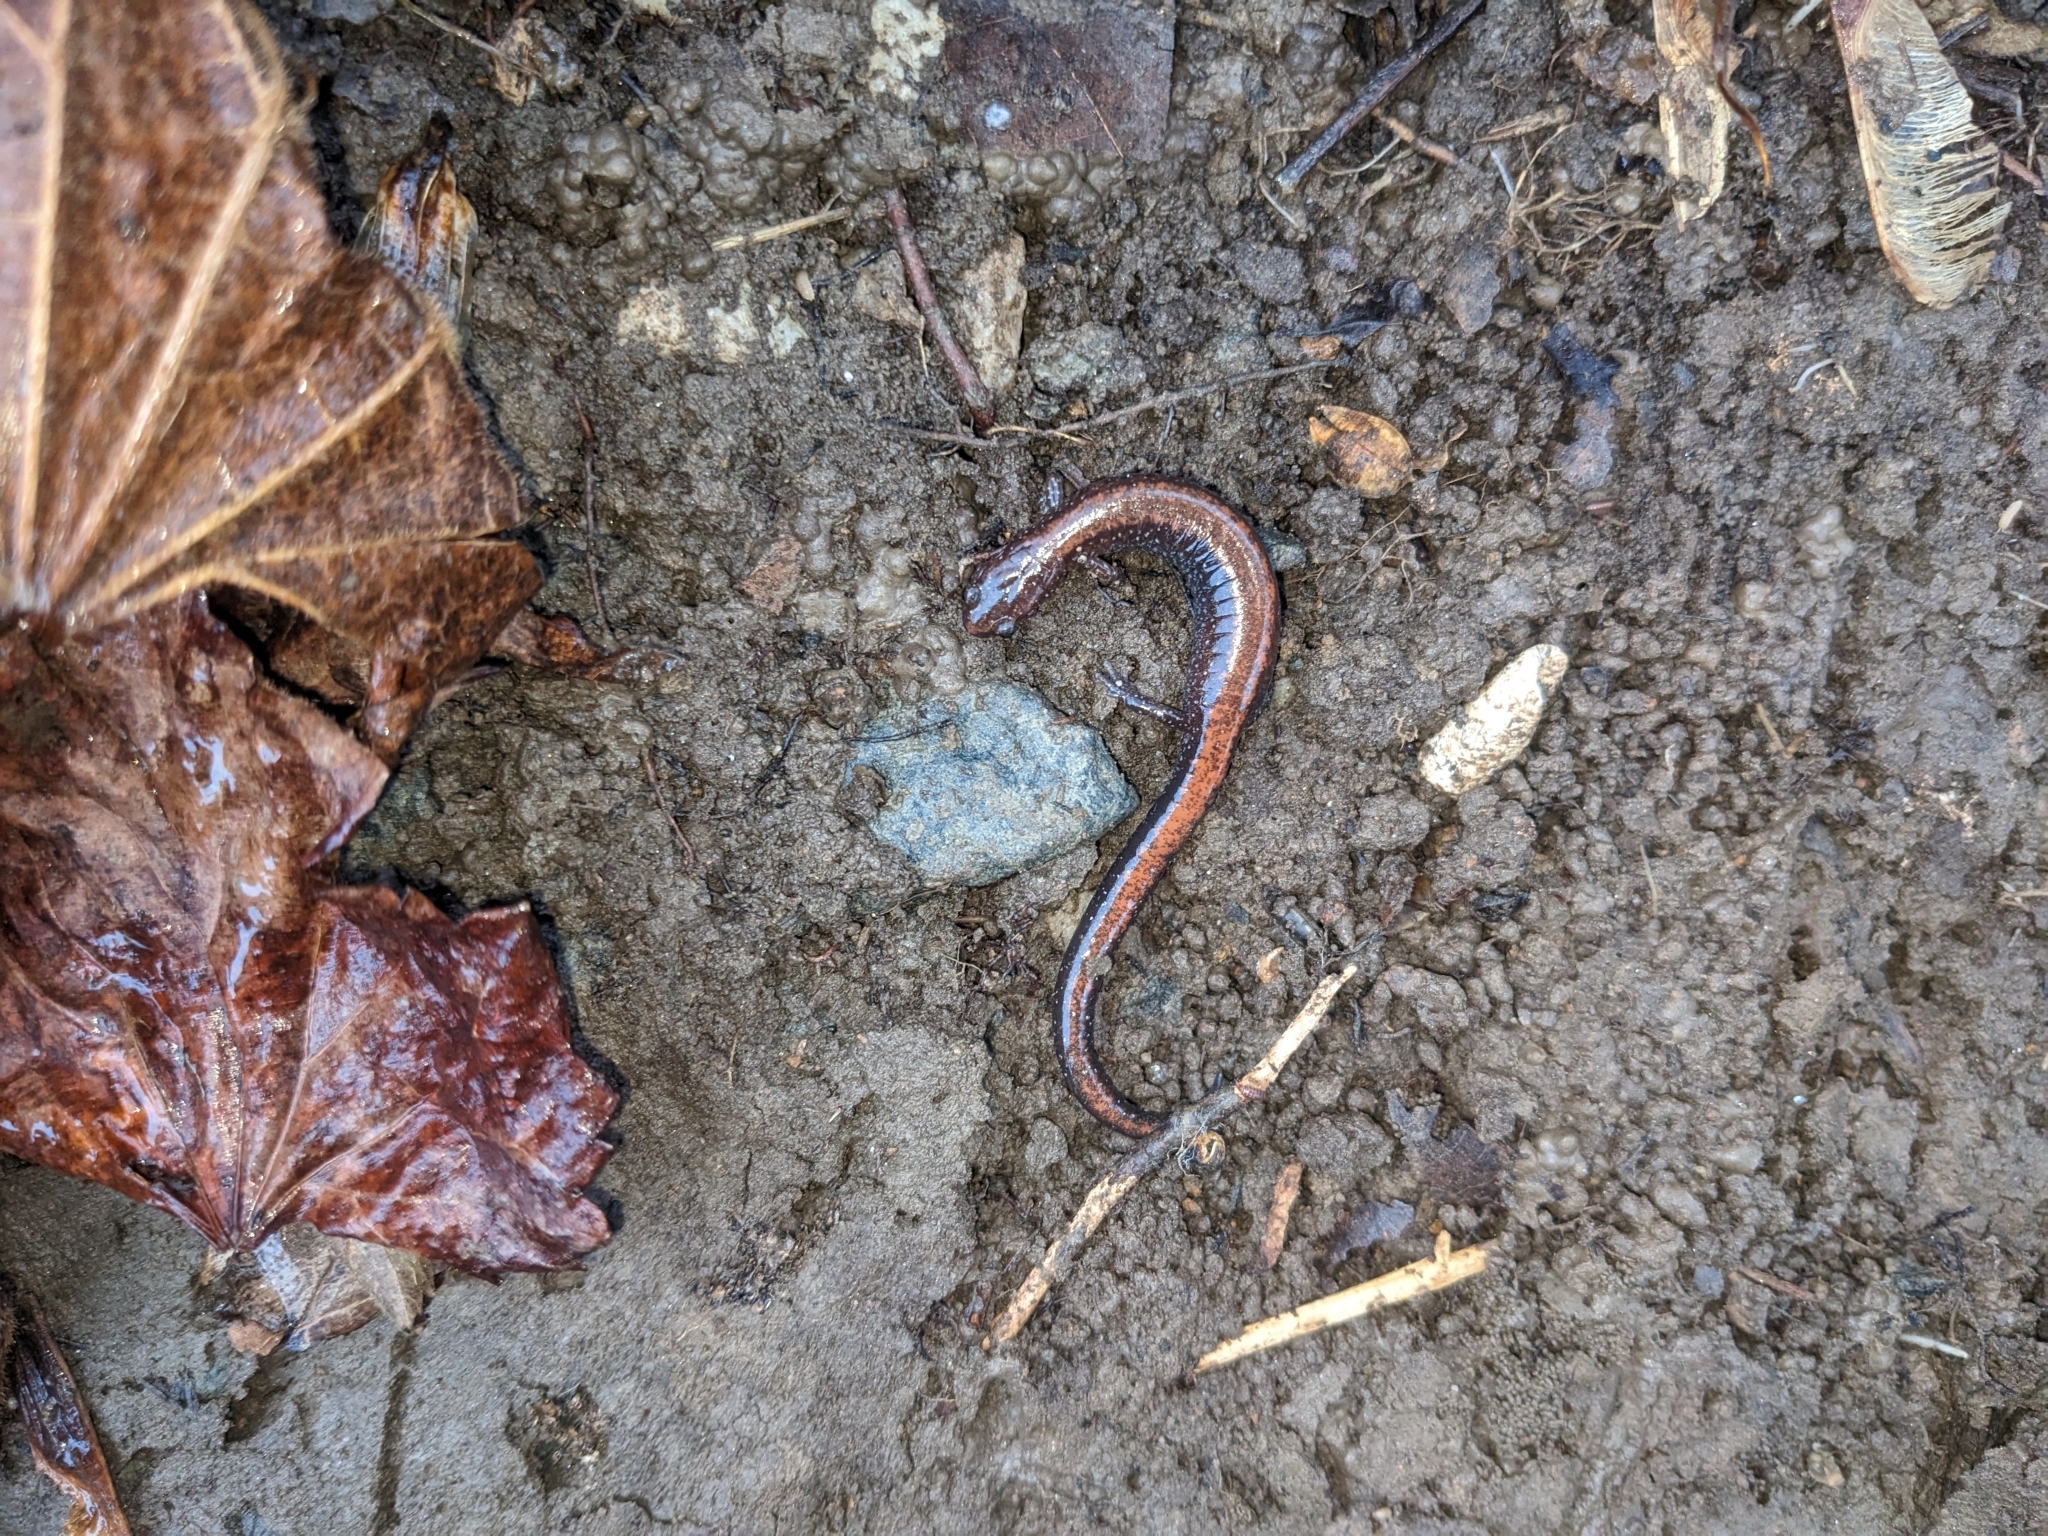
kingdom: Animalia
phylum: Chordata
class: Amphibia
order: Caudata
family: Plethodontidae
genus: Plethodon
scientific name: Plethodon cinereus
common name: Redback salamander
